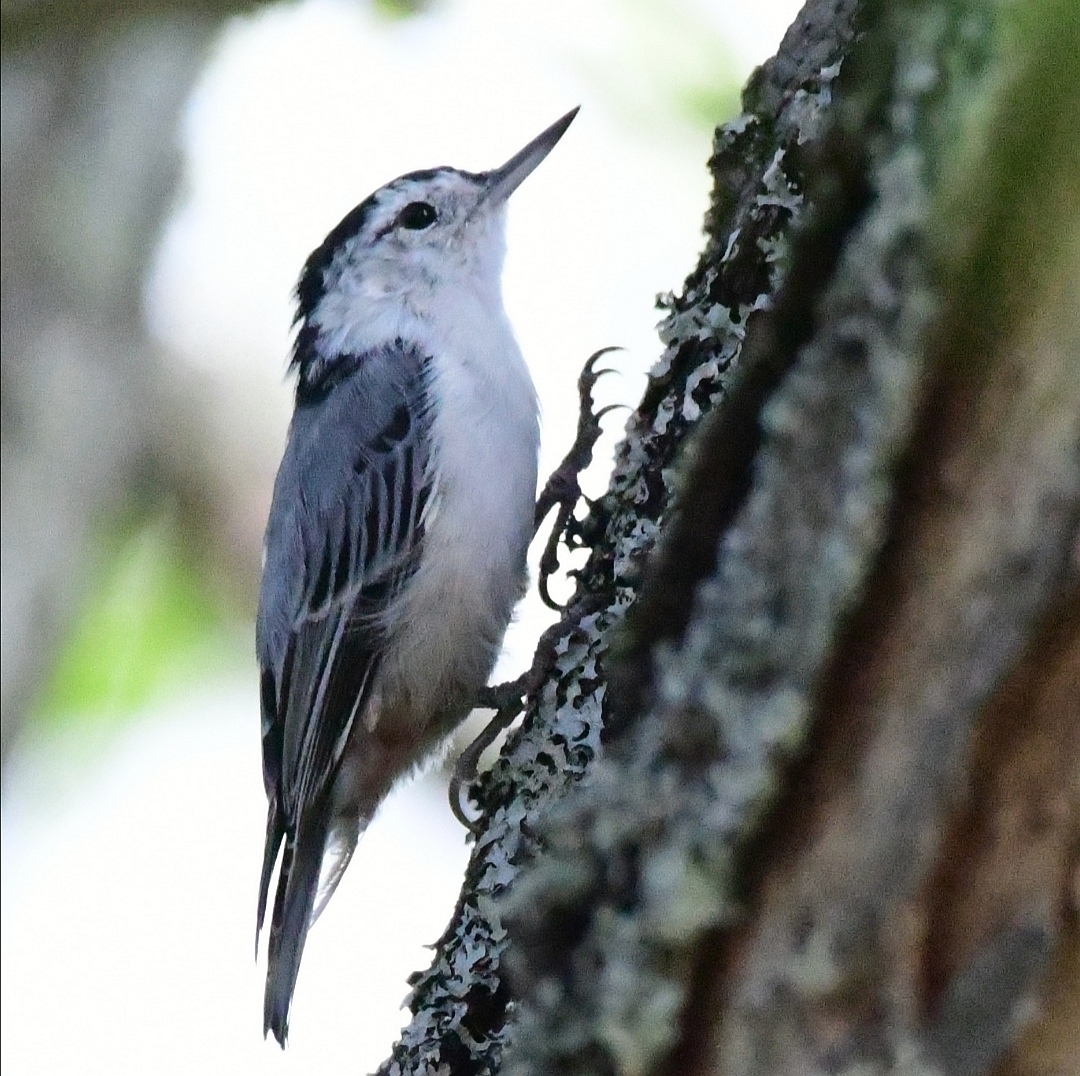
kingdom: Animalia
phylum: Chordata
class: Aves
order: Passeriformes
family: Sittidae
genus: Sitta
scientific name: Sitta carolinensis
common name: White-breasted nuthatch
